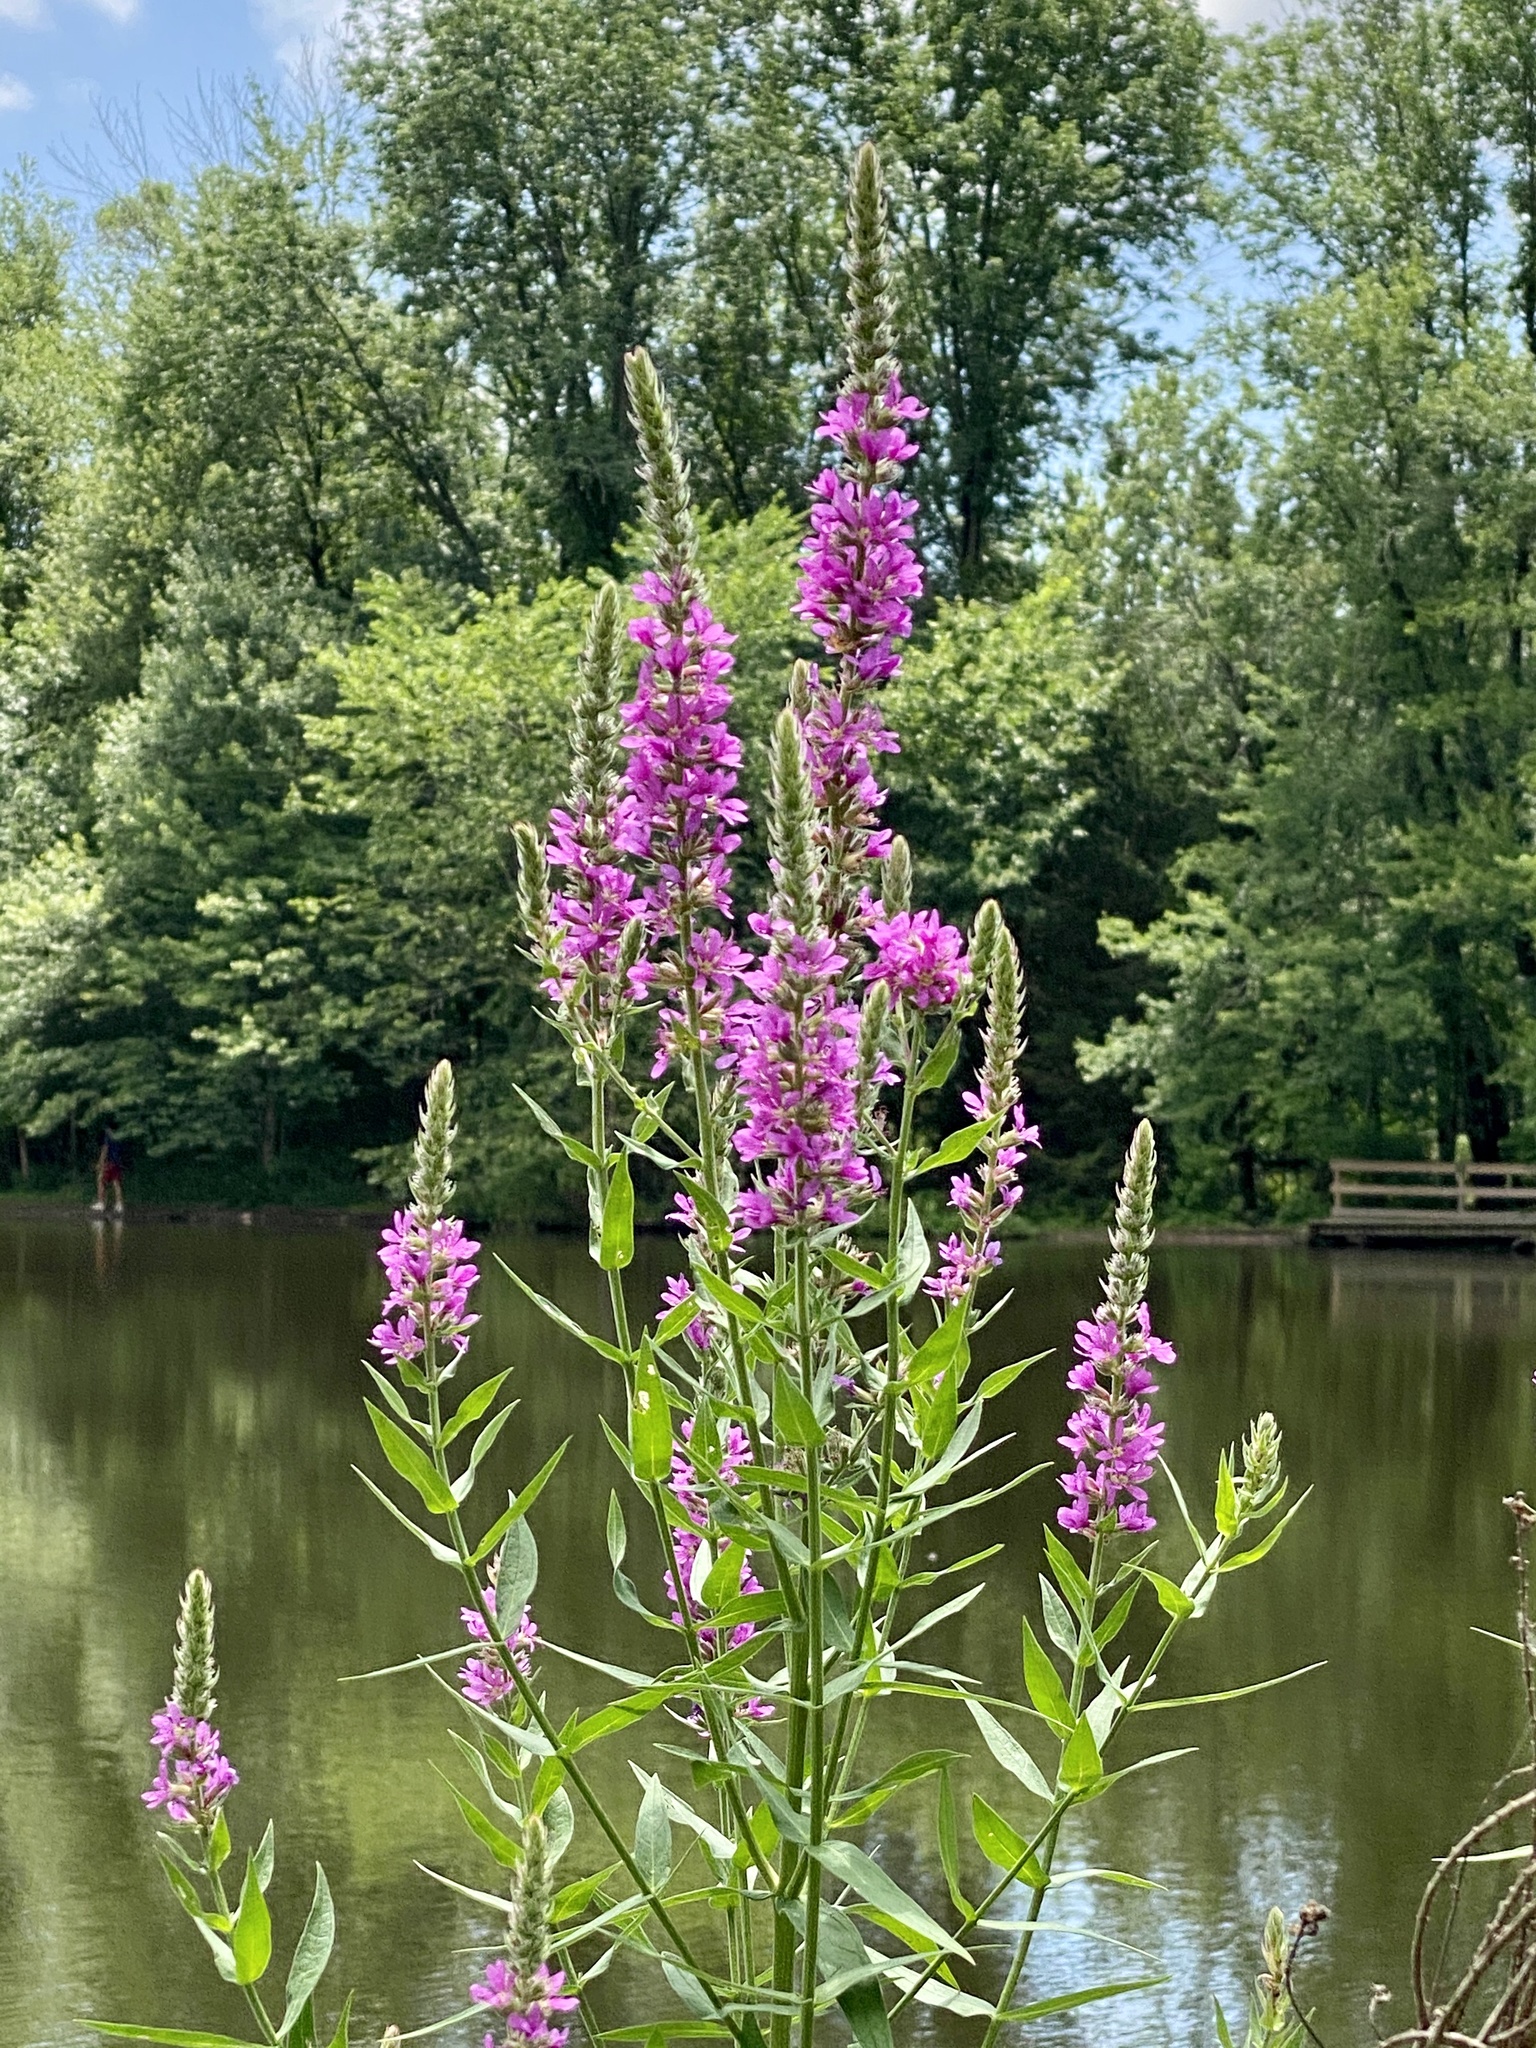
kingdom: Plantae
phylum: Tracheophyta
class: Magnoliopsida
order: Myrtales
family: Lythraceae
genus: Lythrum
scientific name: Lythrum salicaria
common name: Purple loosestrife
